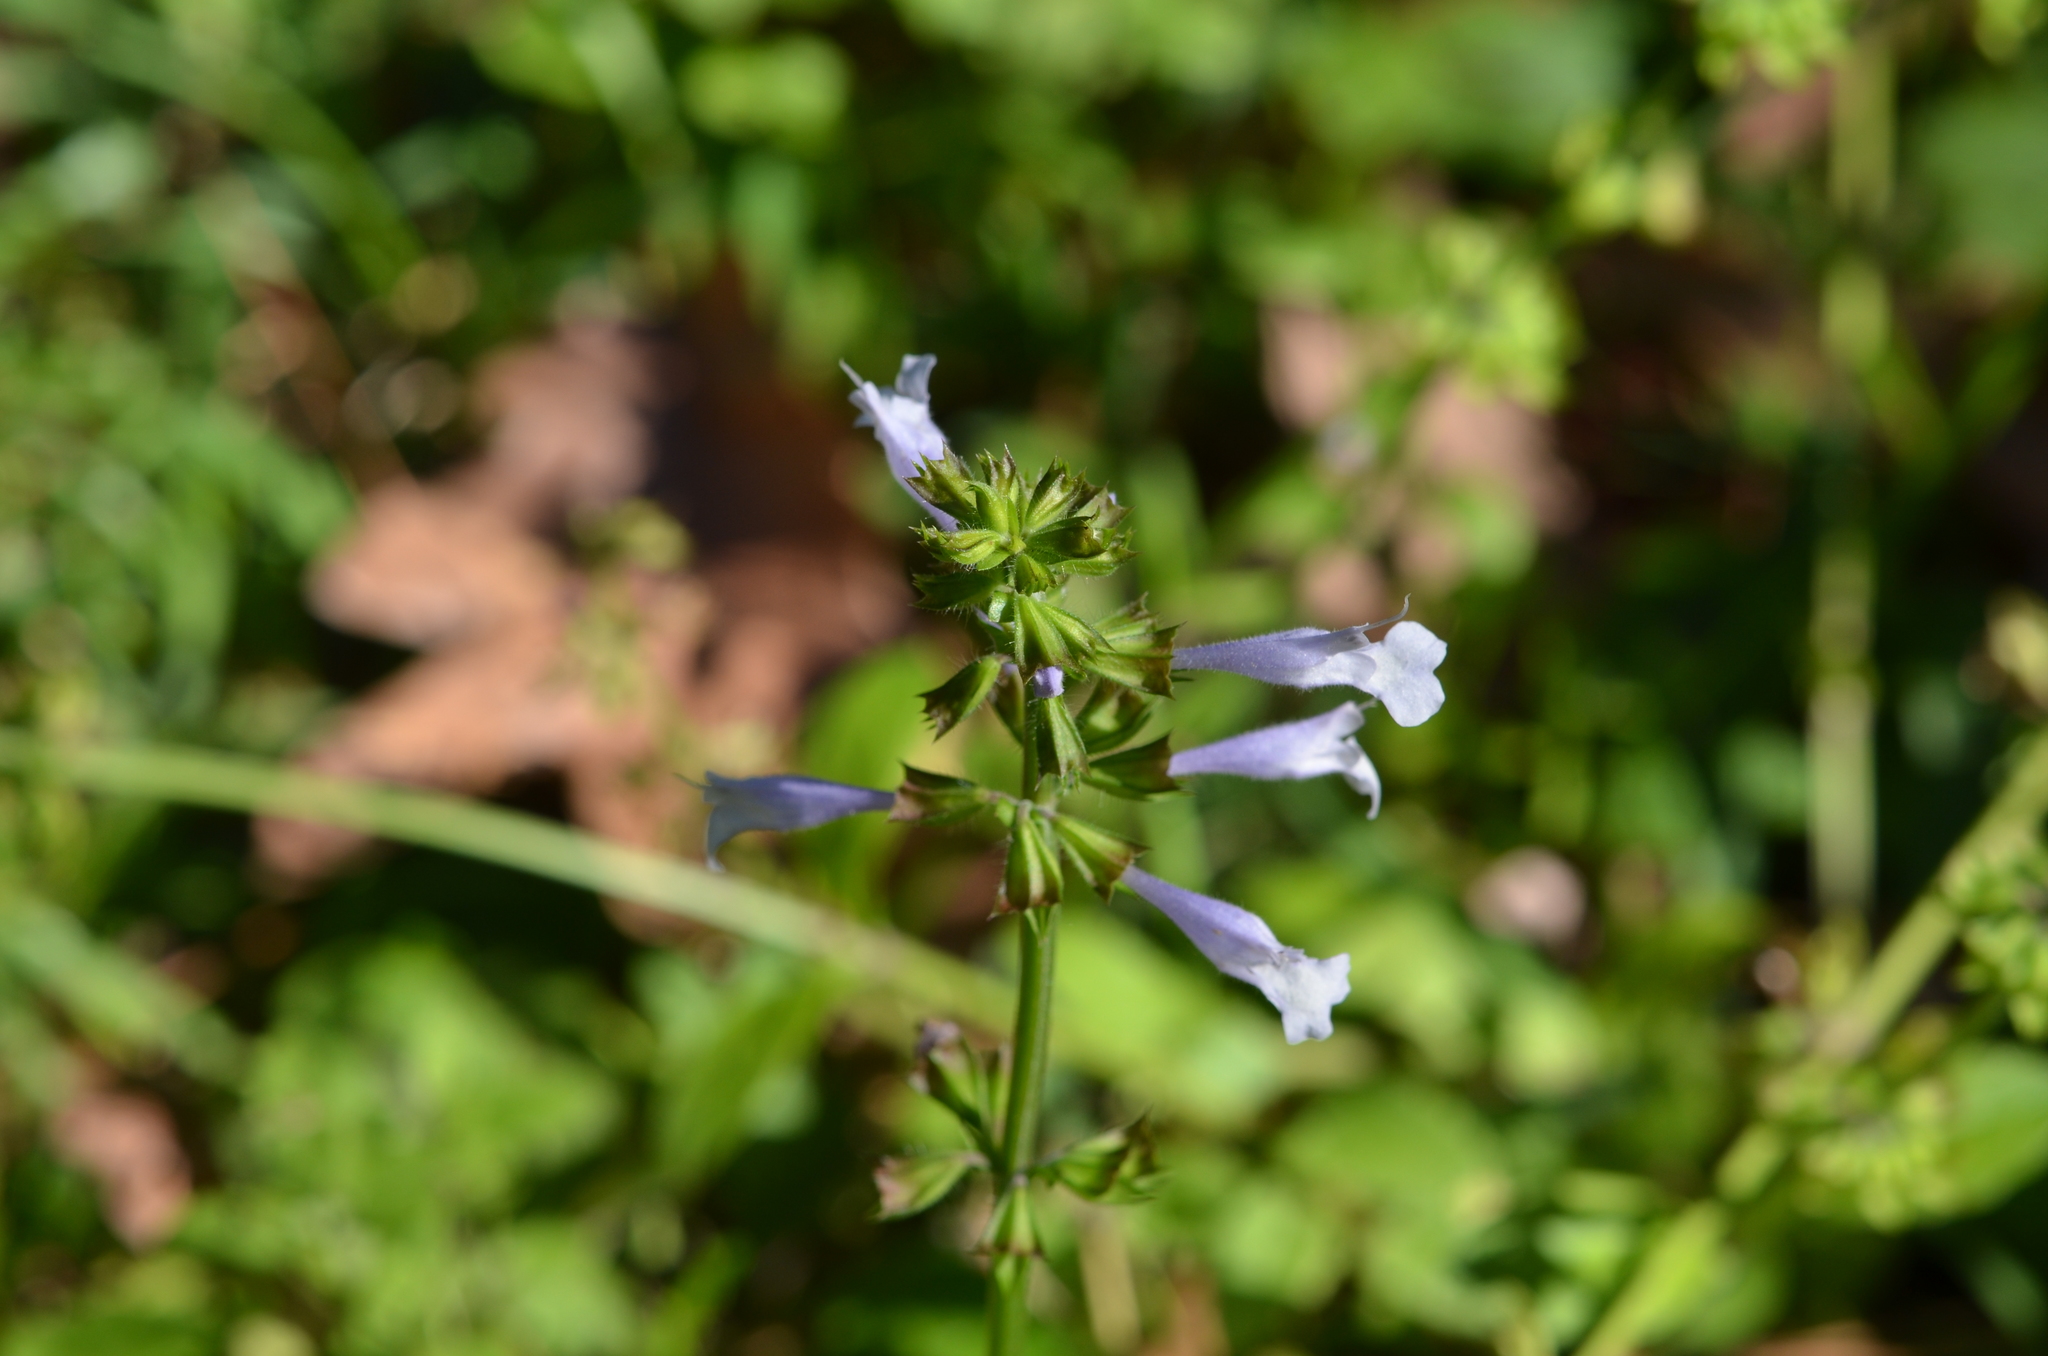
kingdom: Plantae
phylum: Tracheophyta
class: Magnoliopsida
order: Lamiales
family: Lamiaceae
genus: Salvia
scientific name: Salvia lyrata
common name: Cancerweed
